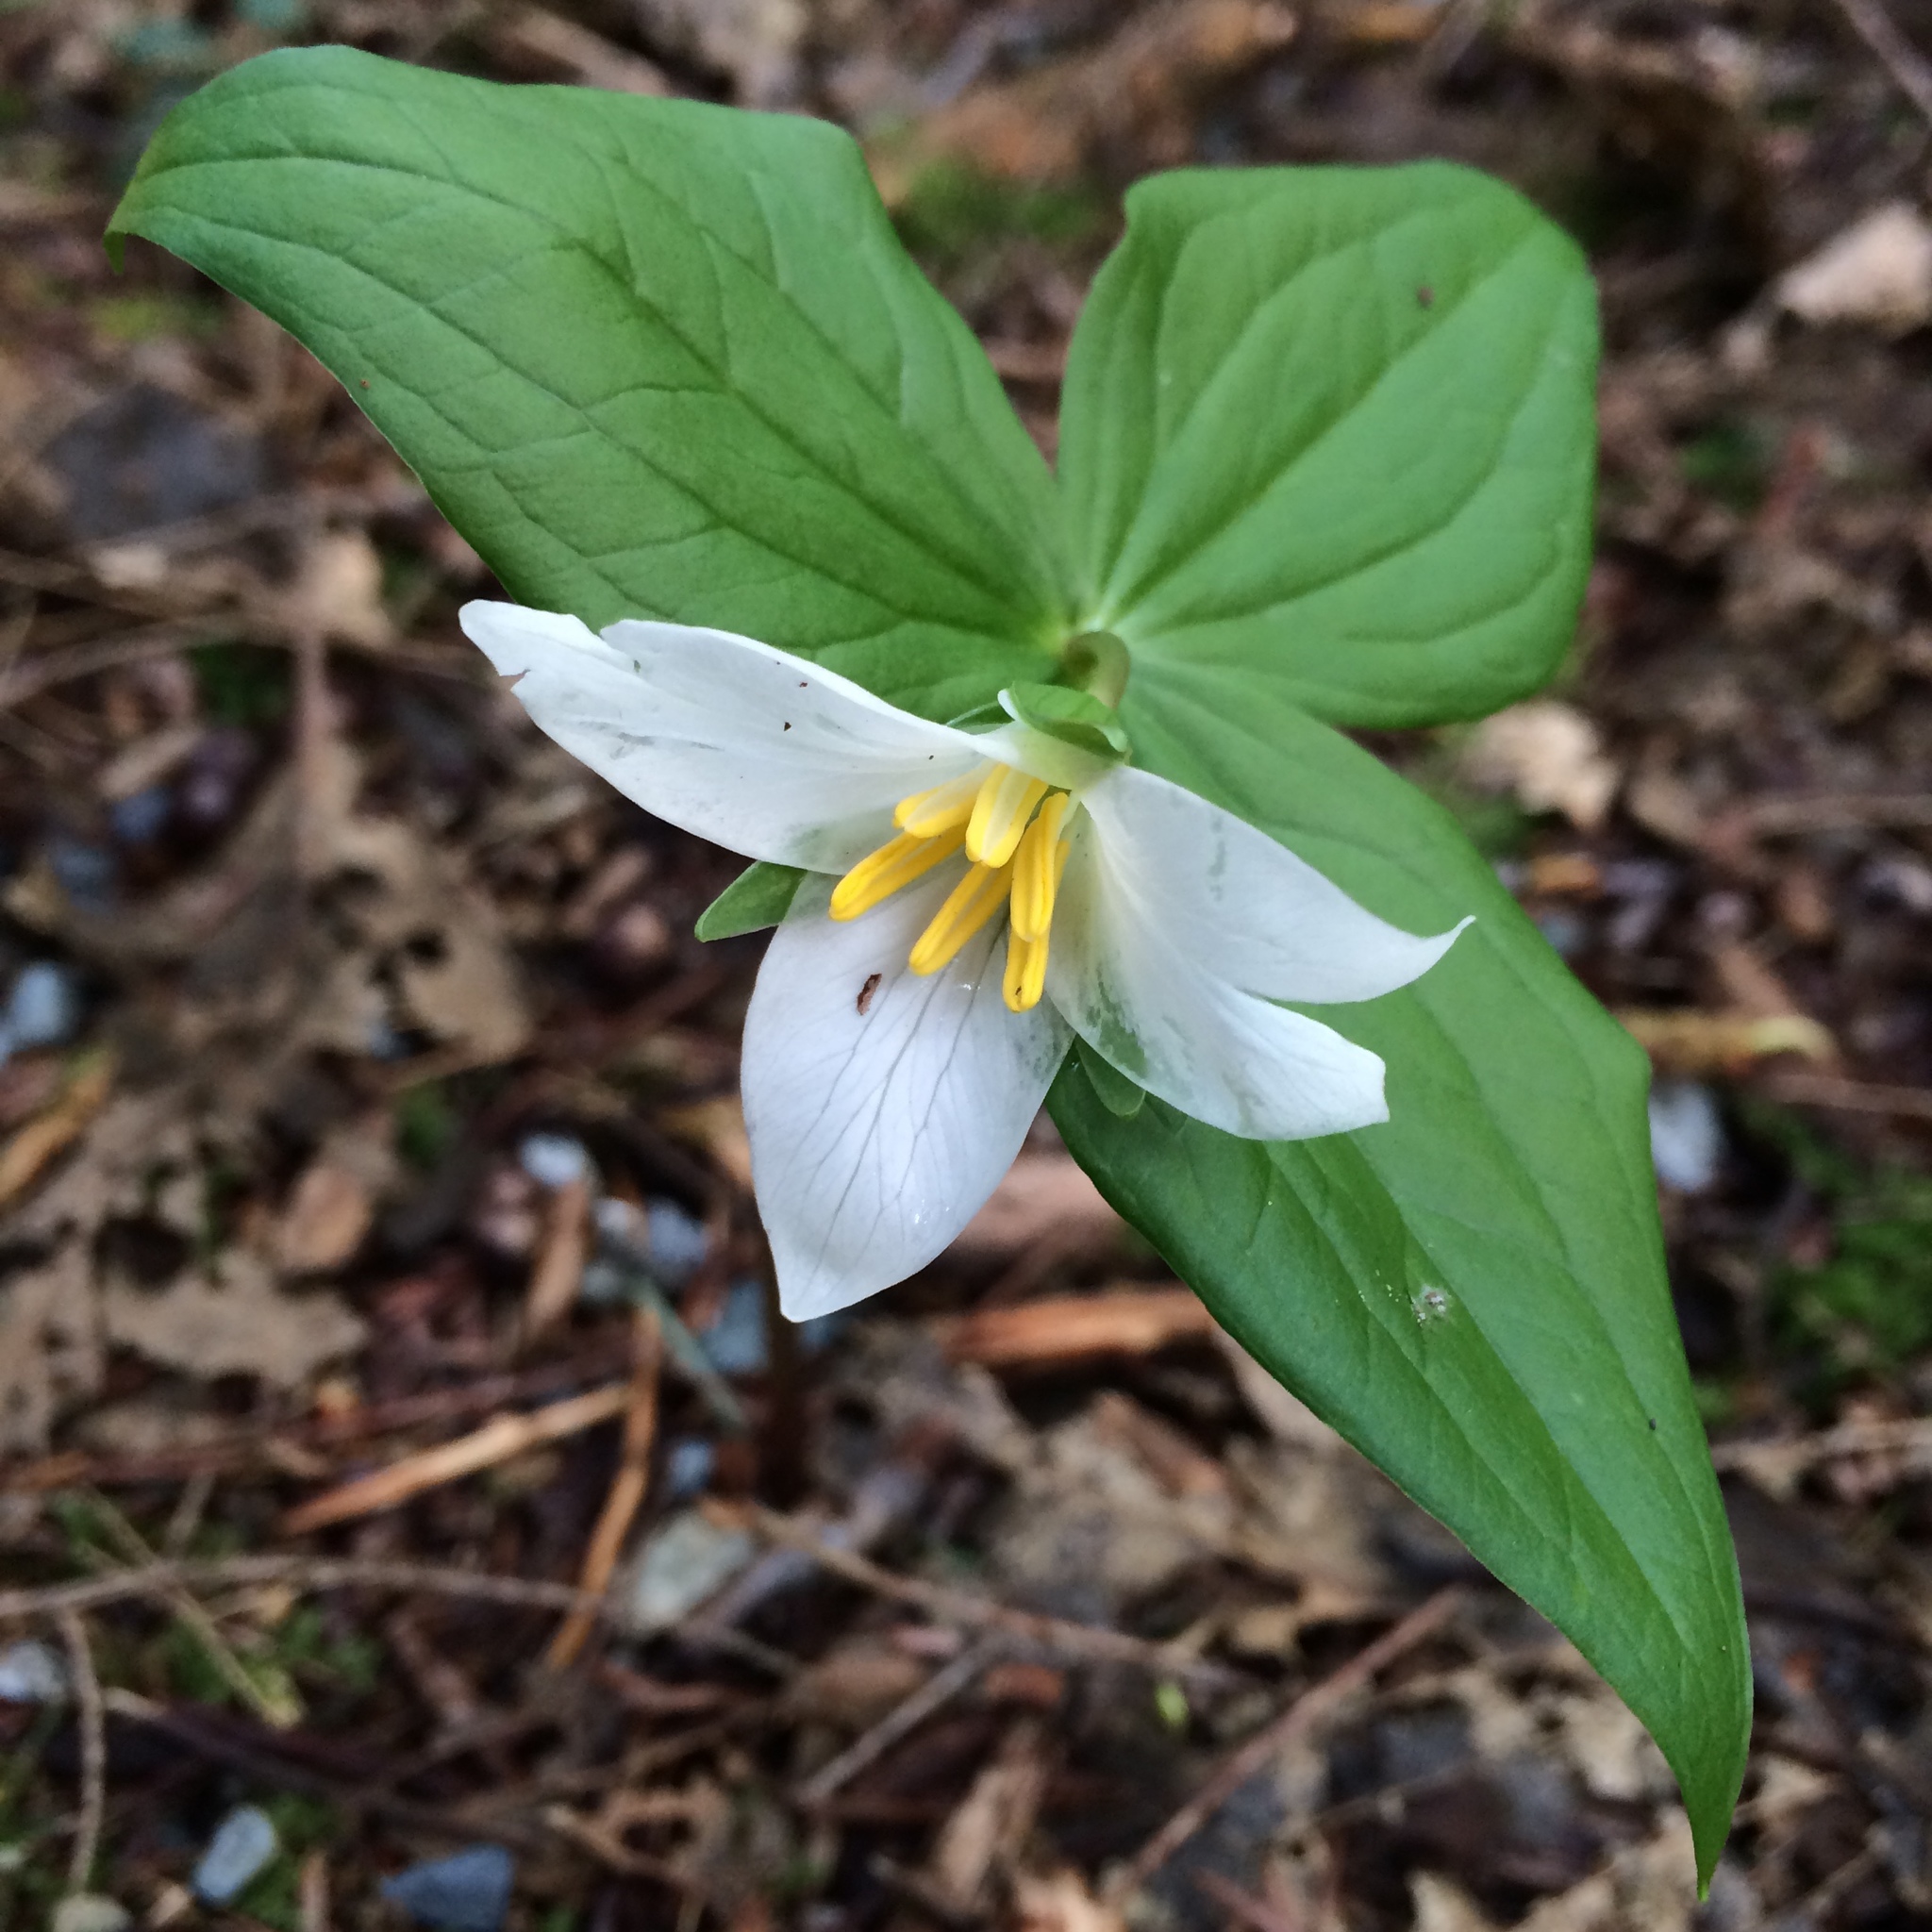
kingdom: Plantae
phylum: Tracheophyta
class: Liliopsida
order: Liliales
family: Melanthiaceae
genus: Trillium
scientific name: Trillium ovatum
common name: Pacific trillium
